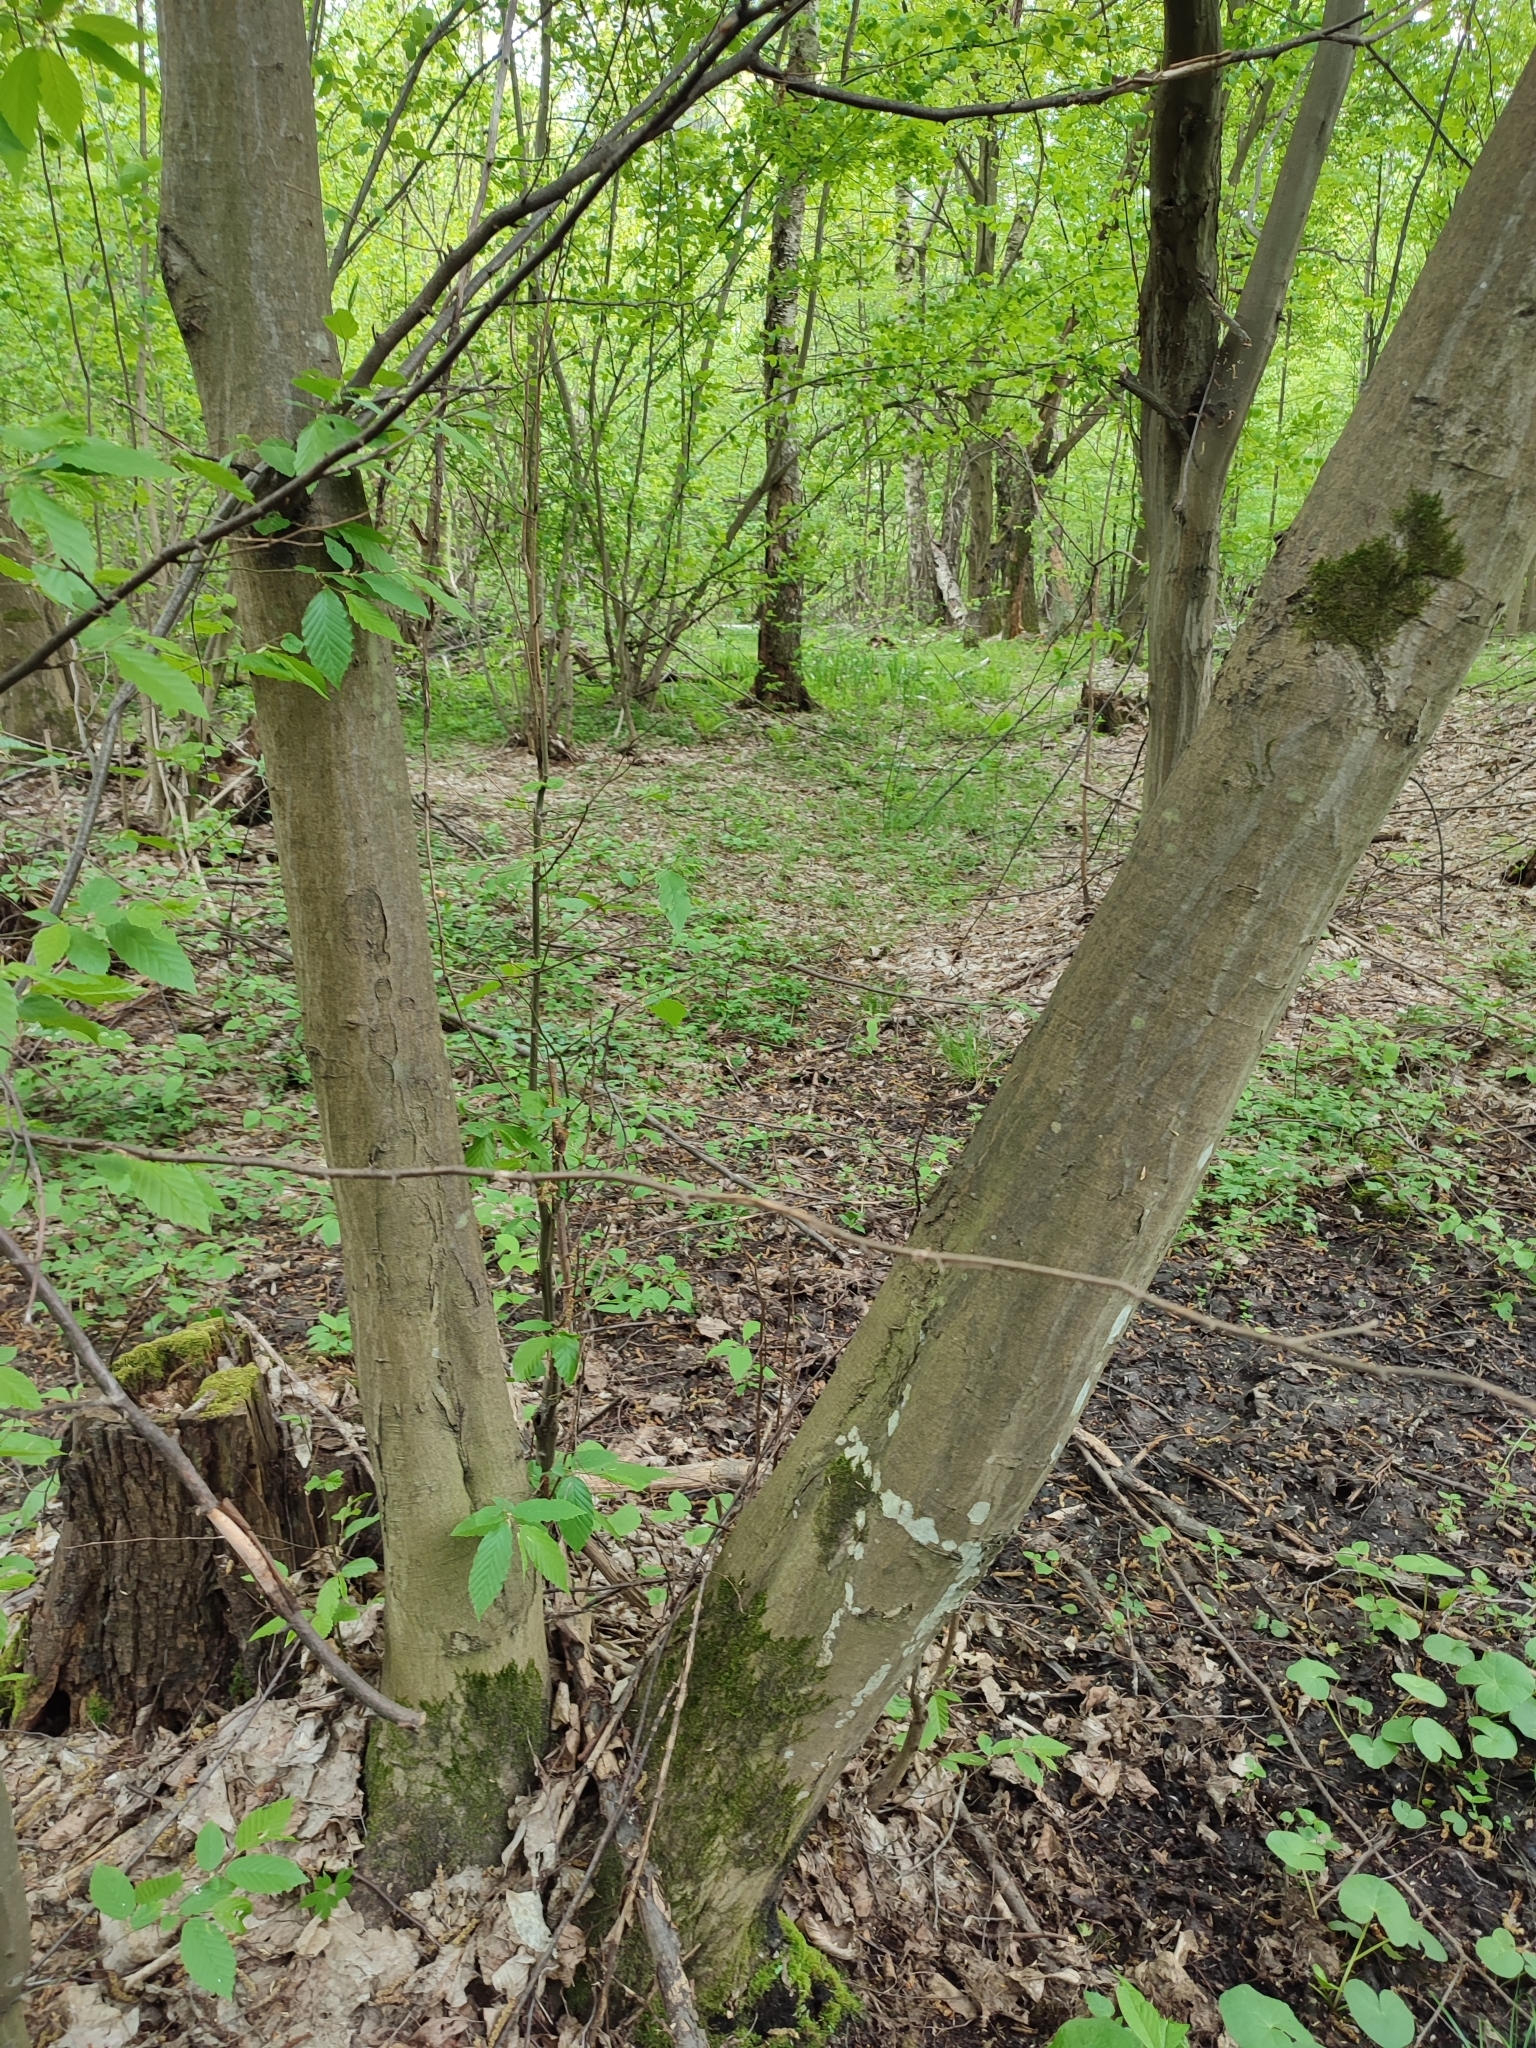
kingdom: Plantae
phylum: Tracheophyta
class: Magnoliopsida
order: Fagales
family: Betulaceae
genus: Carpinus
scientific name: Carpinus betulus
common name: Hornbeam
